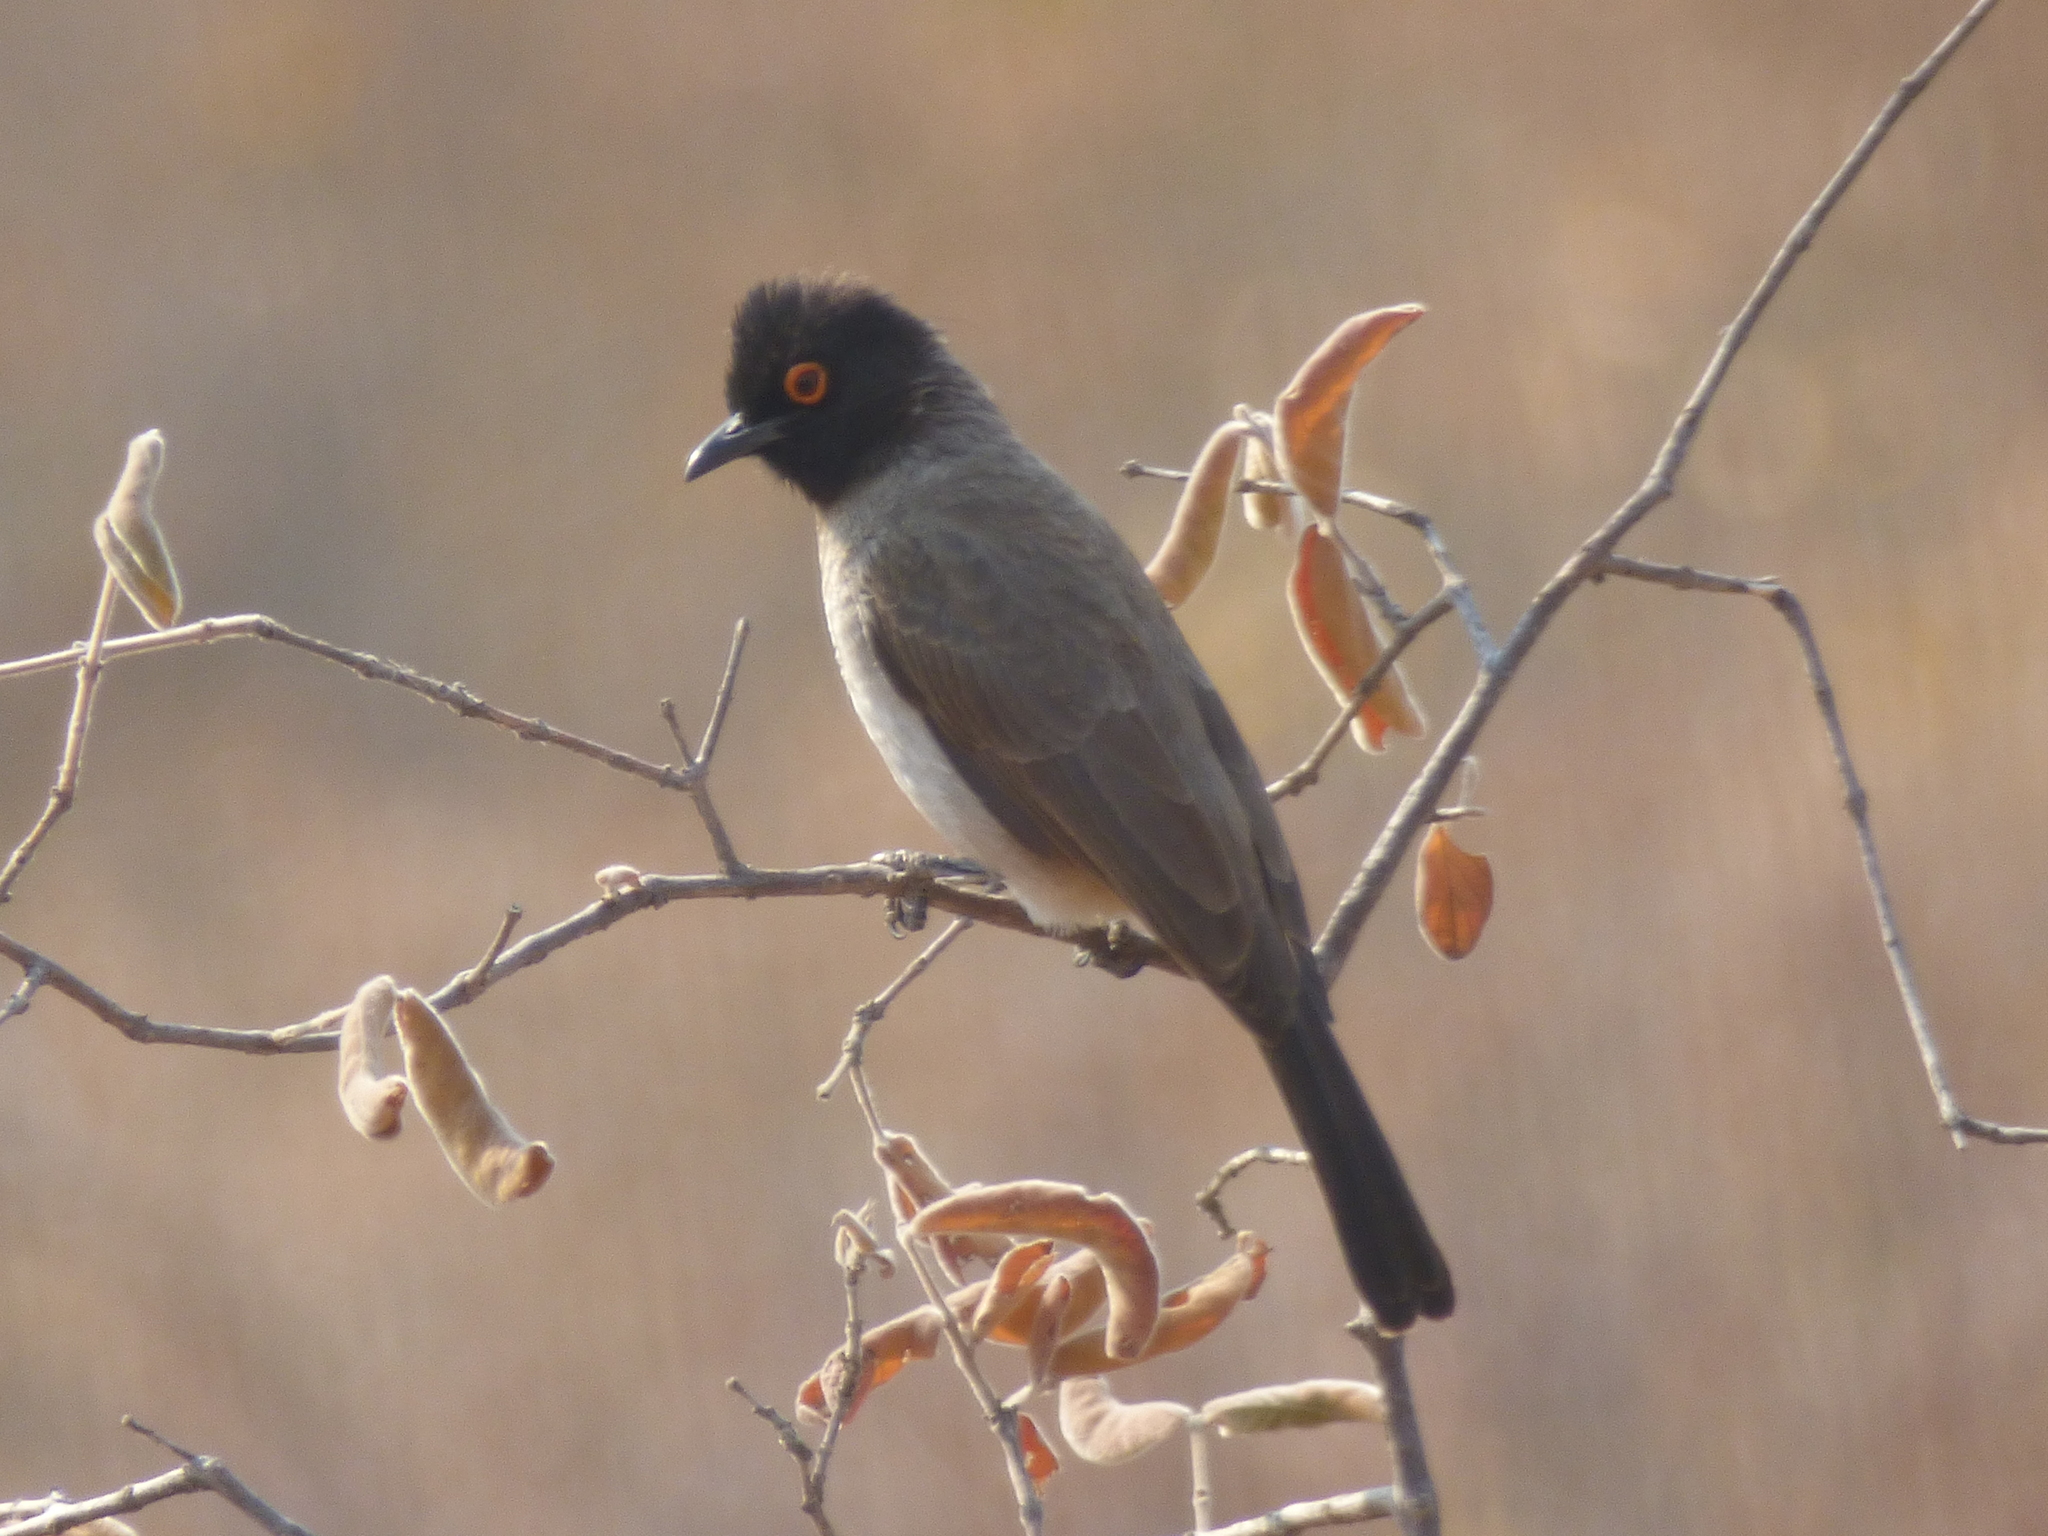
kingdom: Animalia
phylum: Chordata
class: Aves
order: Passeriformes
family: Pycnonotidae
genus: Pycnonotus
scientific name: Pycnonotus nigricans
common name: African red-eyed bulbul
